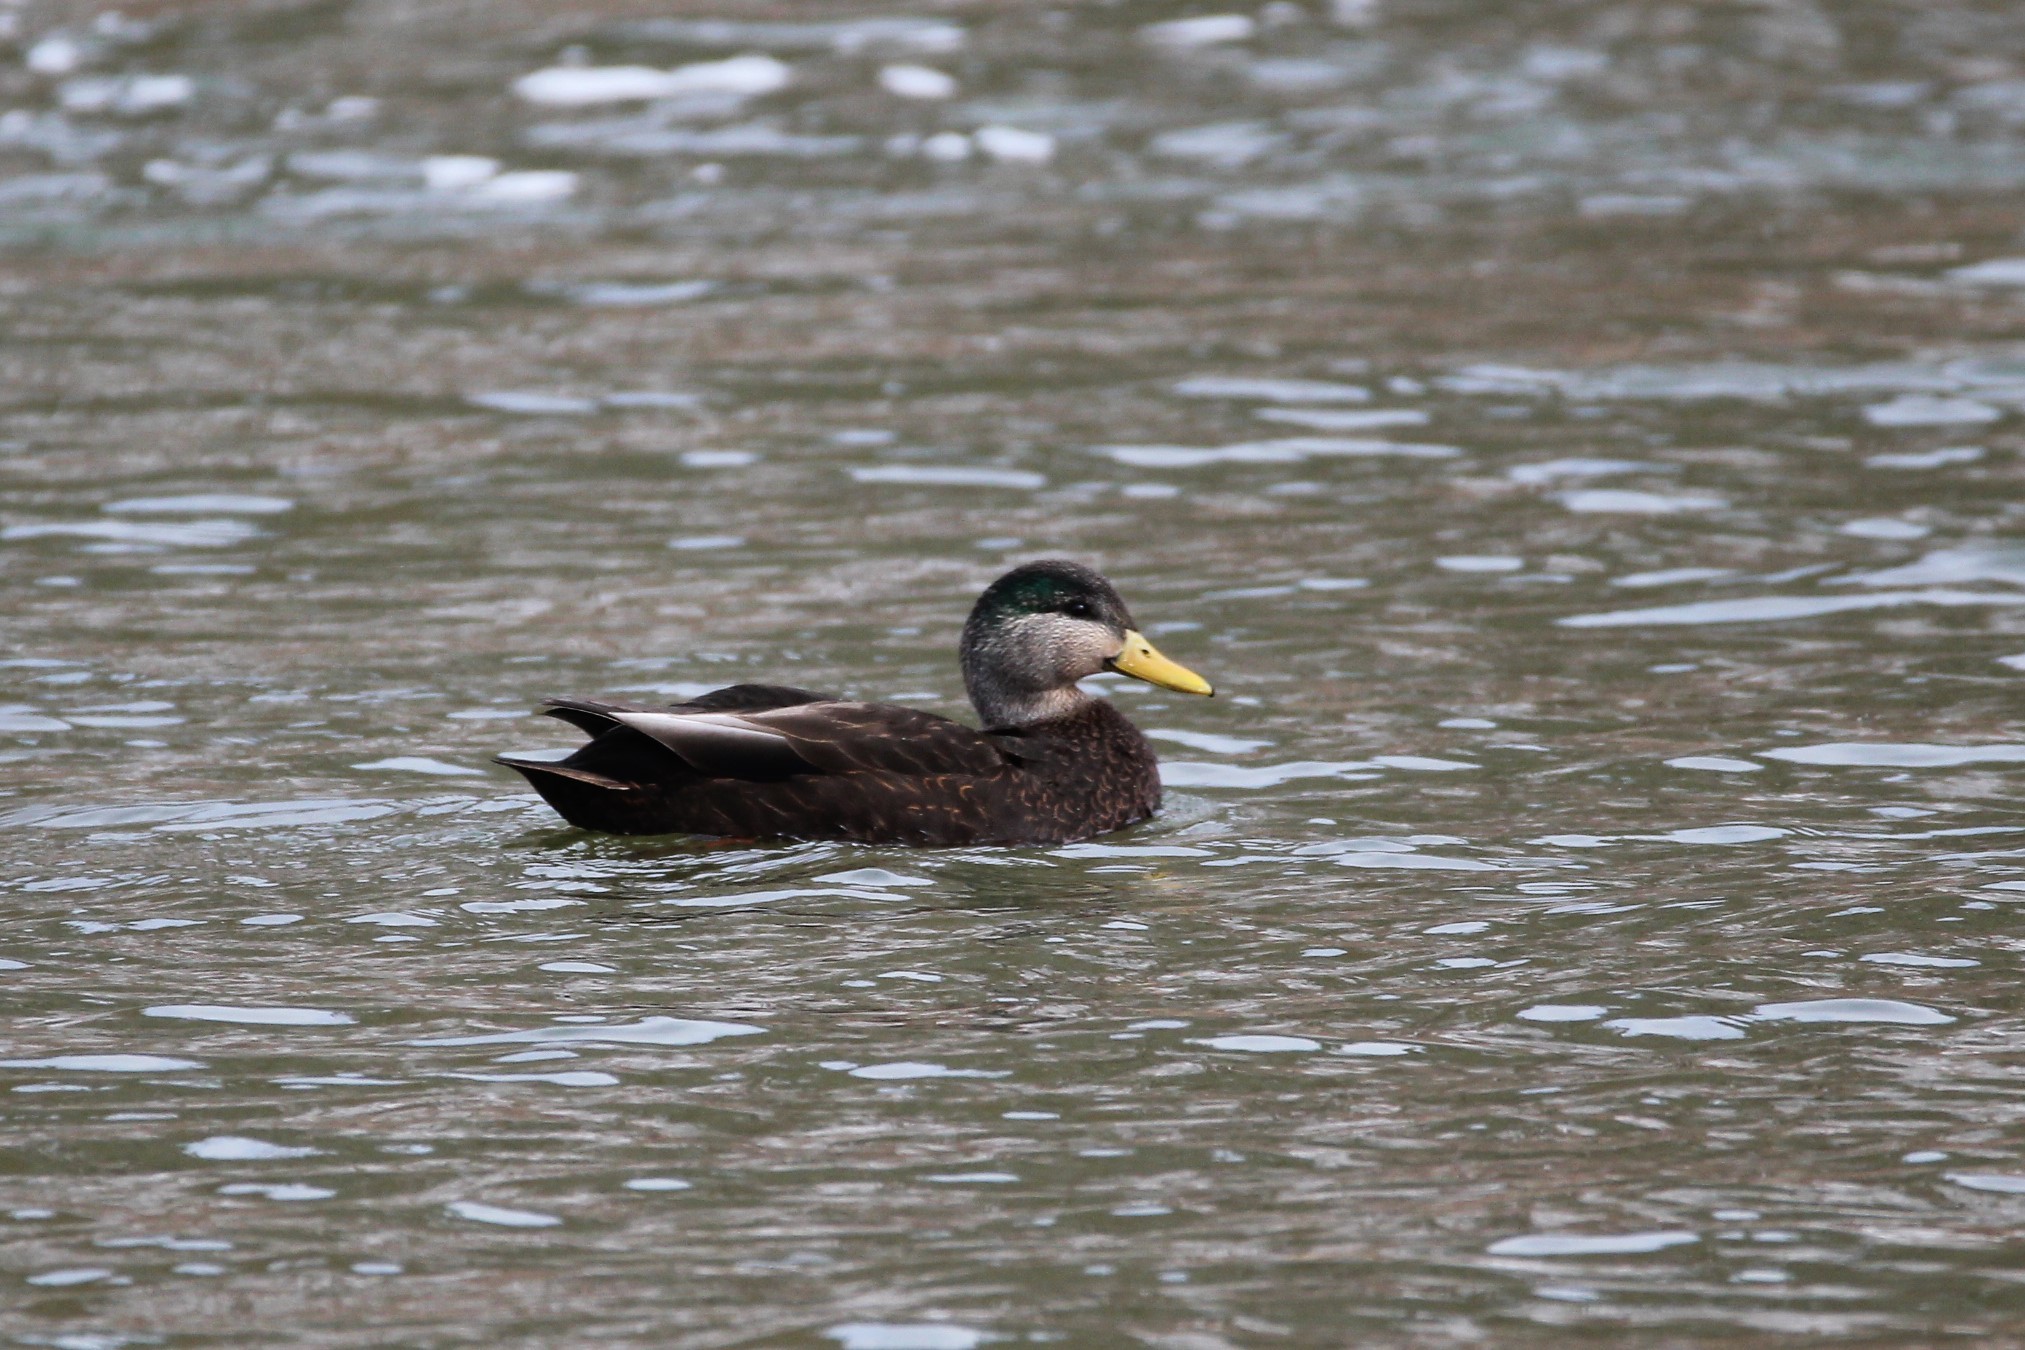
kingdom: Animalia
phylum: Chordata
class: Aves
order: Anseriformes
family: Anatidae
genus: Anas
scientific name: Anas
